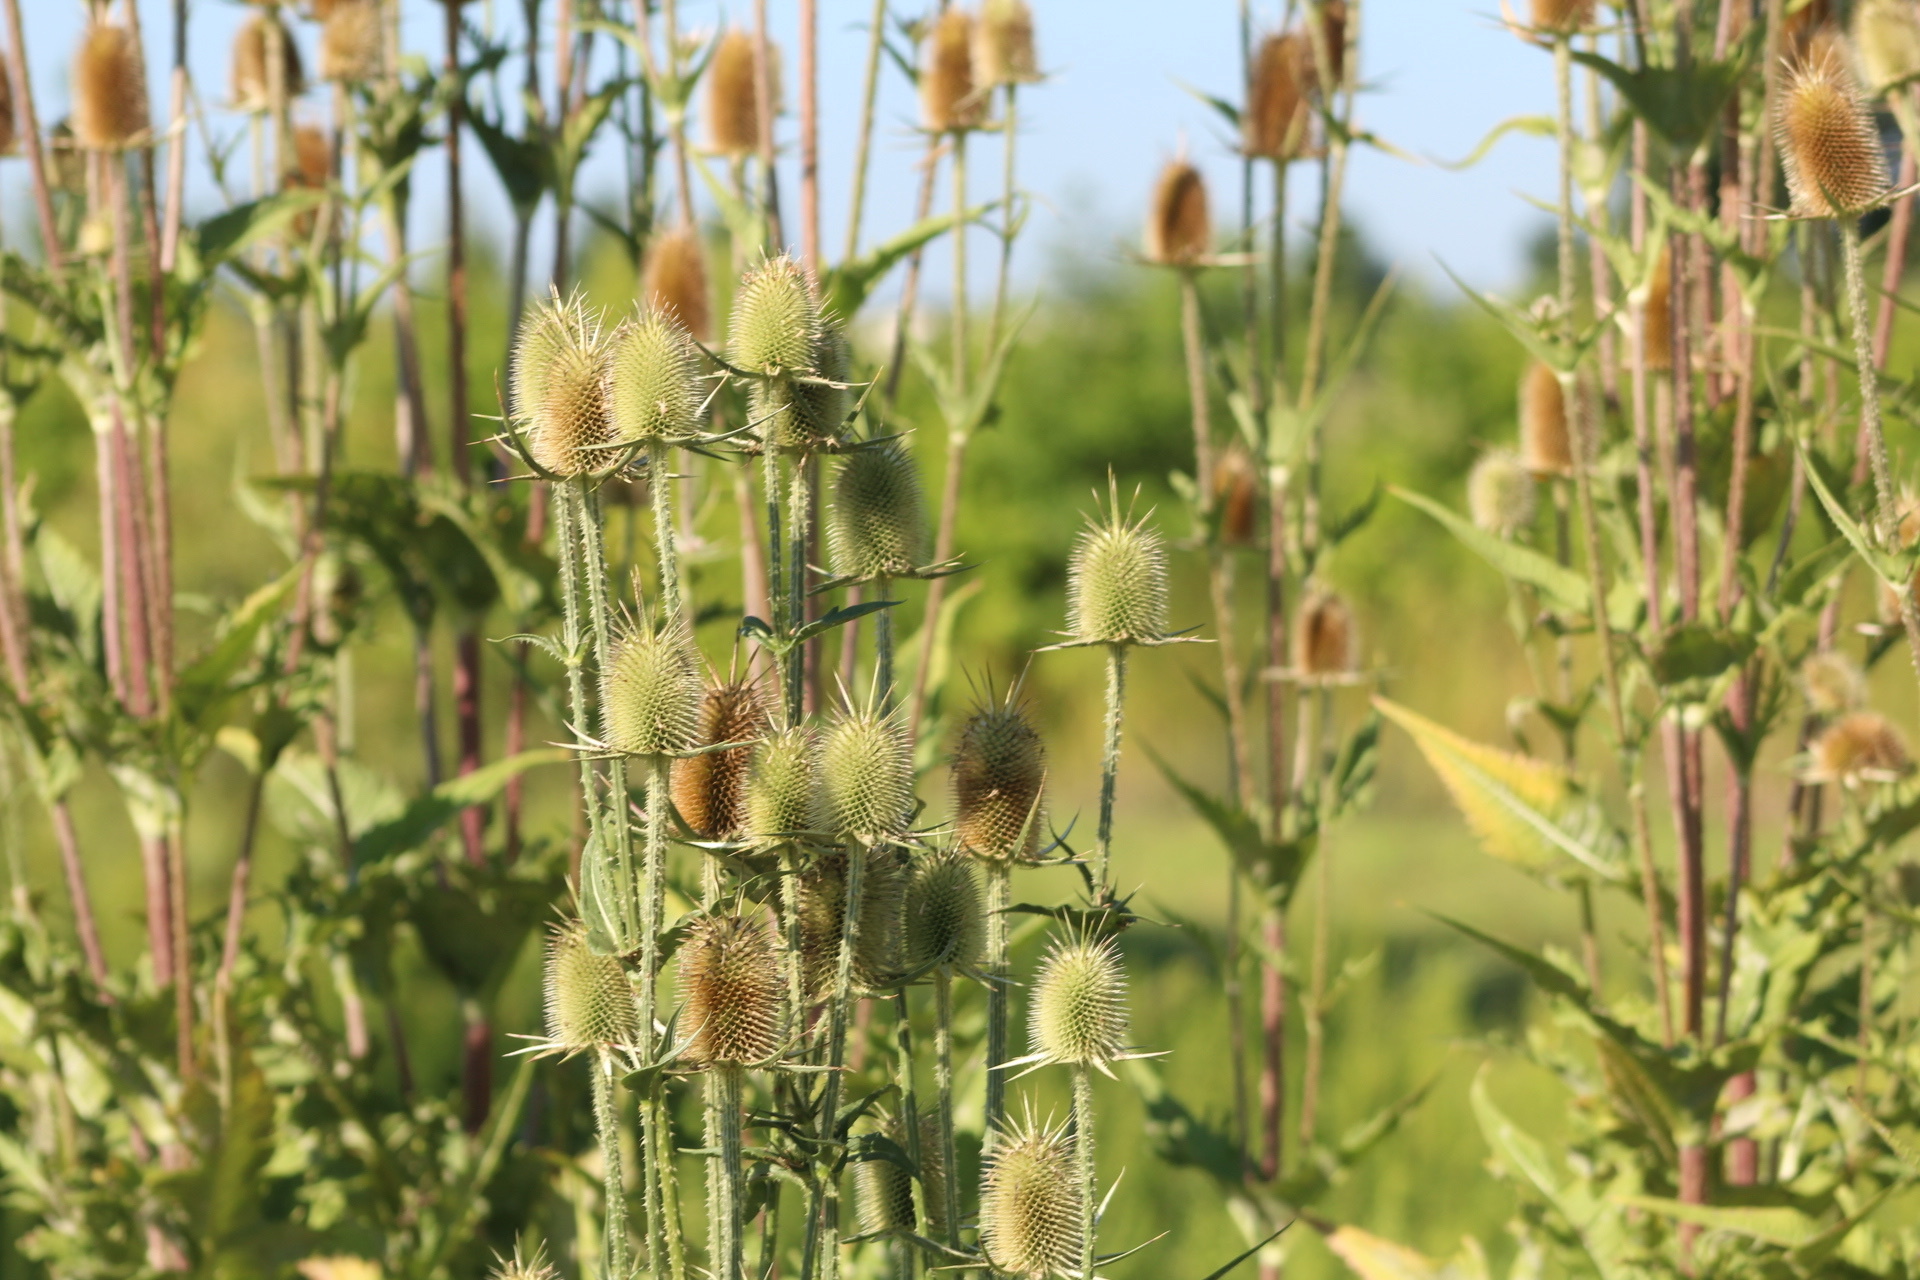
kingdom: Plantae
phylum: Tracheophyta
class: Magnoliopsida
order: Dipsacales
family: Caprifoliaceae
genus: Dipsacus
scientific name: Dipsacus laciniatus
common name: Cut-leaved teasel
